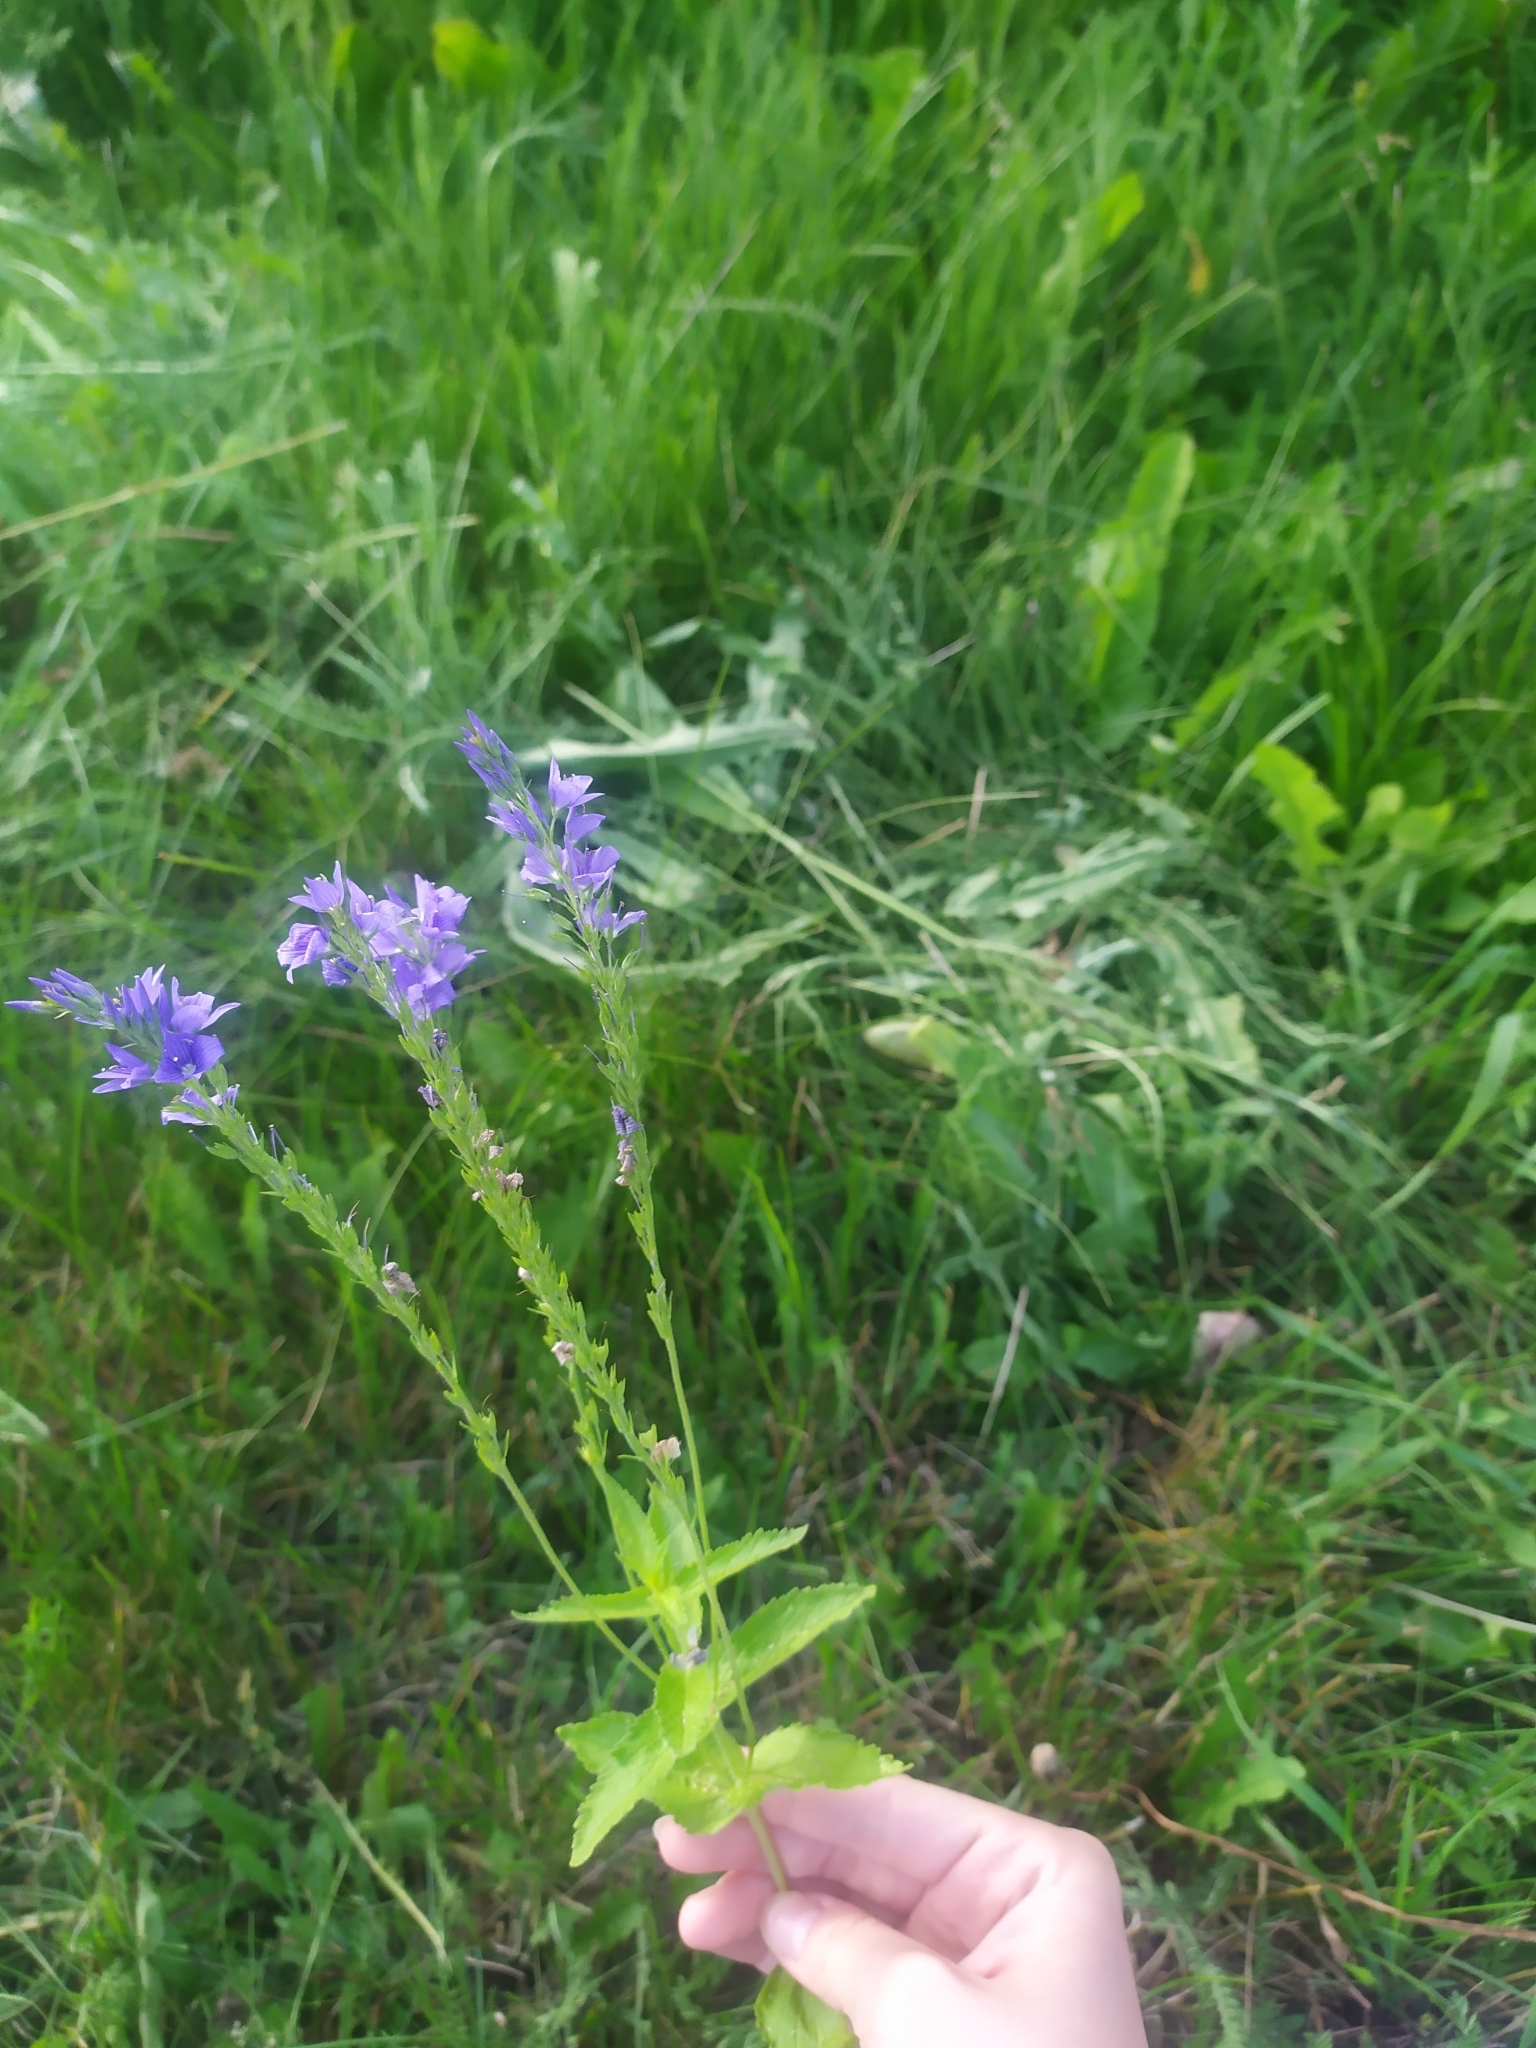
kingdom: Plantae
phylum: Tracheophyta
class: Magnoliopsida
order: Lamiales
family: Plantaginaceae
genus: Veronica
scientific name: Veronica teucrium
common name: Large speedwell
